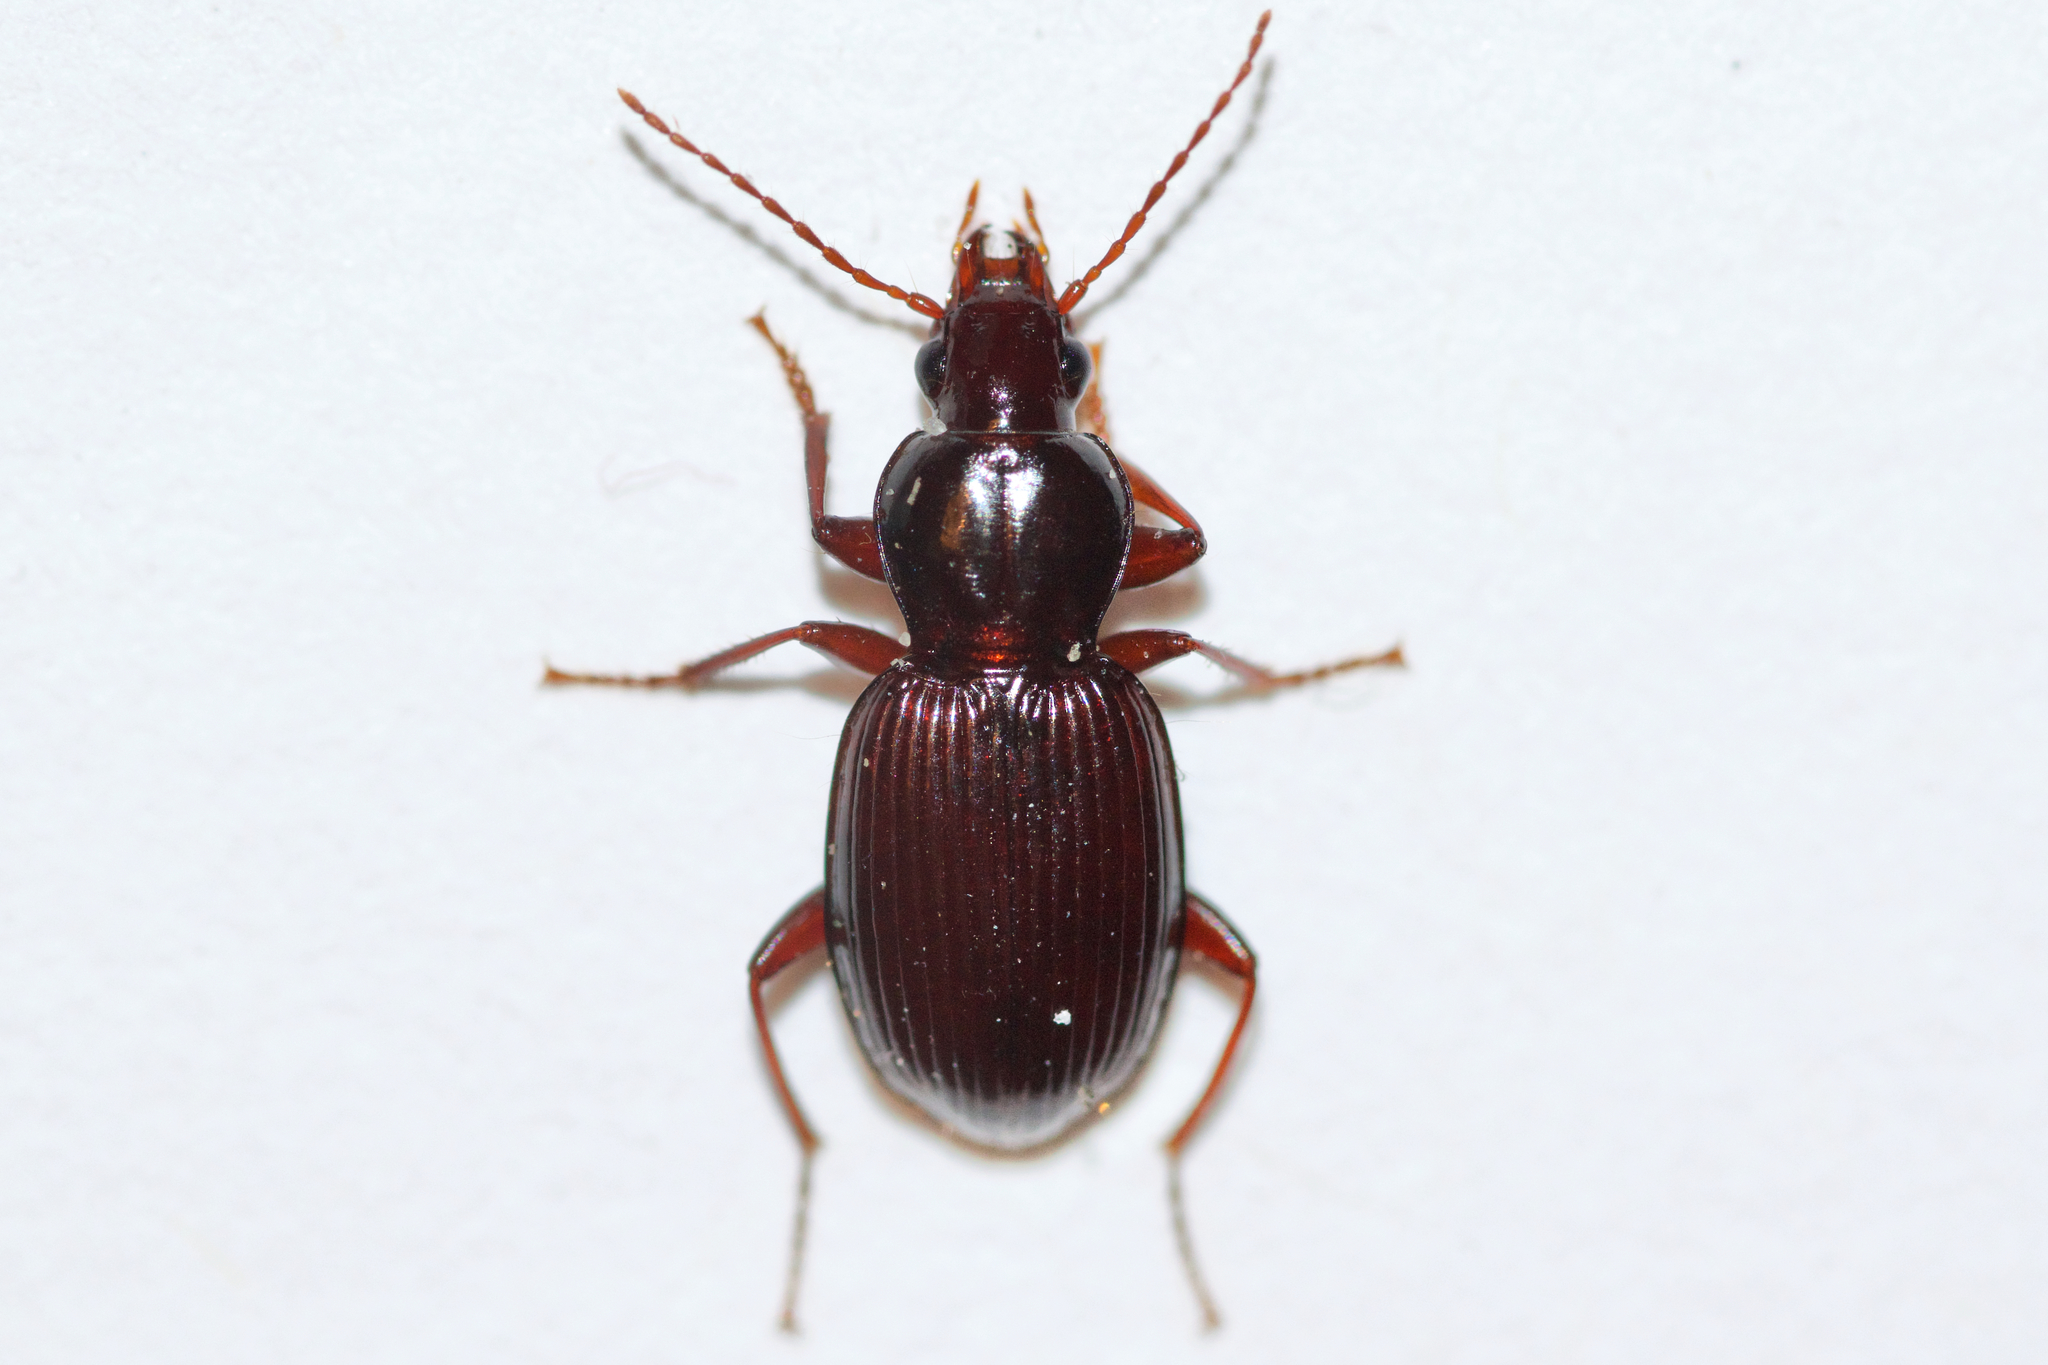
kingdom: Animalia
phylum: Arthropoda
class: Insecta
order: Coleoptera
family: Carabidae
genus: Gastrellarius
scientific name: Gastrellarius honestus
